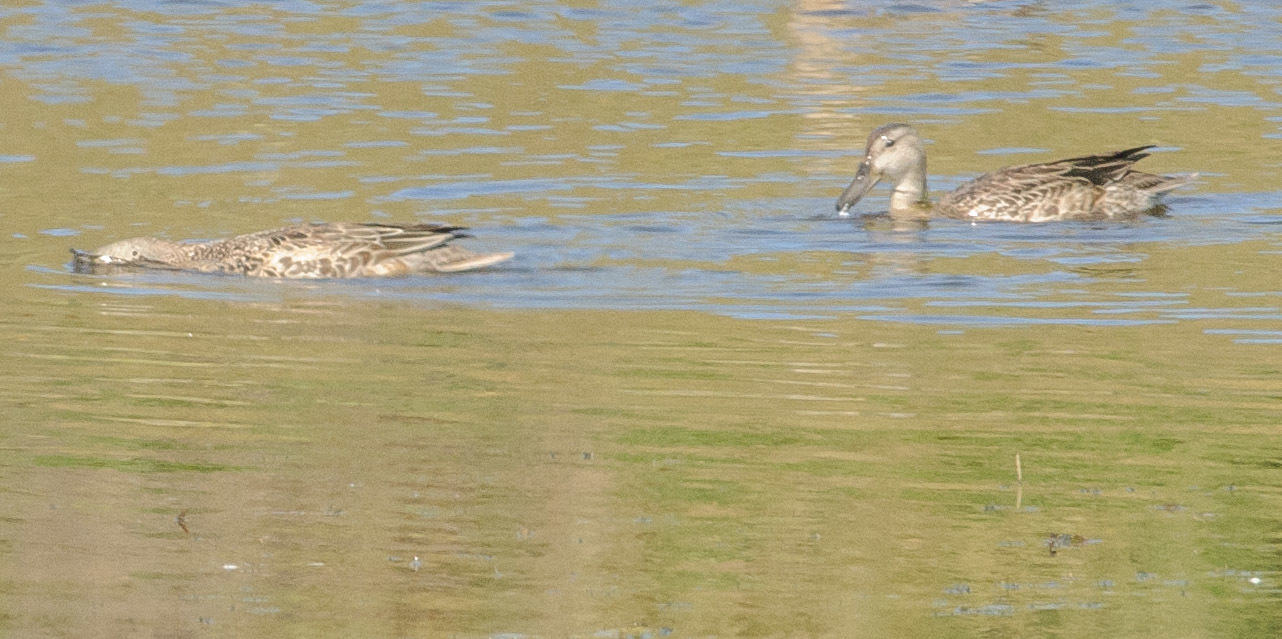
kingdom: Animalia
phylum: Chordata
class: Aves
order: Anseriformes
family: Anatidae
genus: Spatula
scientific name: Spatula discors
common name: Blue-winged teal
